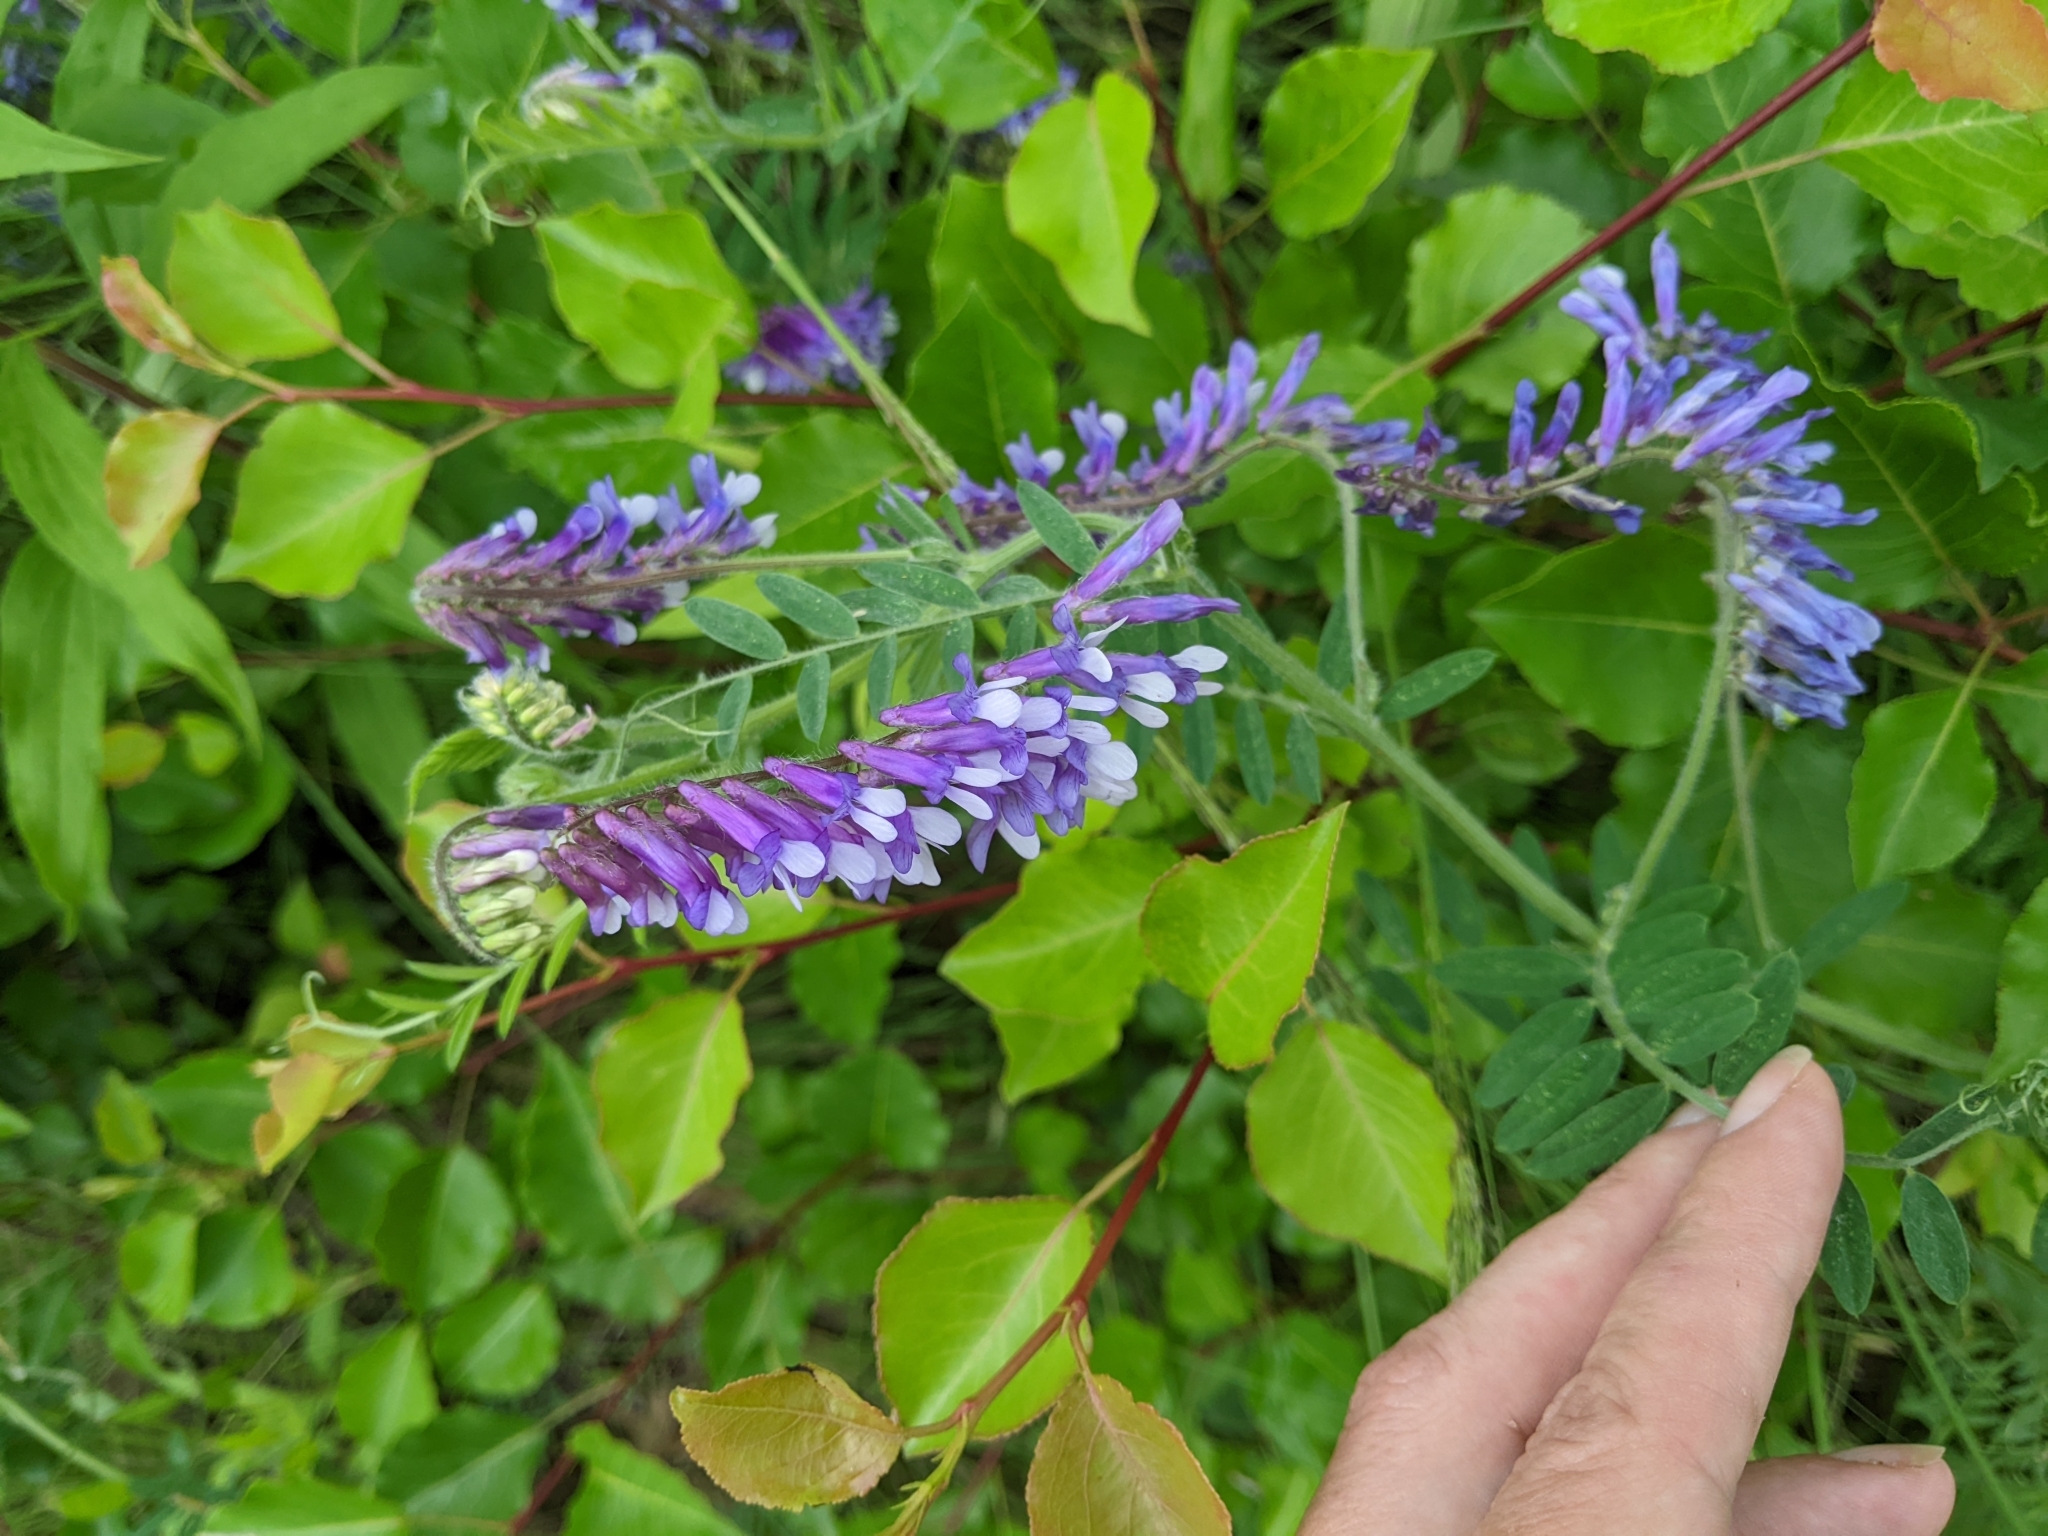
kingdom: Plantae
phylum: Tracheophyta
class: Magnoliopsida
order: Fabales
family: Fabaceae
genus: Vicia
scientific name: Vicia villosa
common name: Fodder vetch
